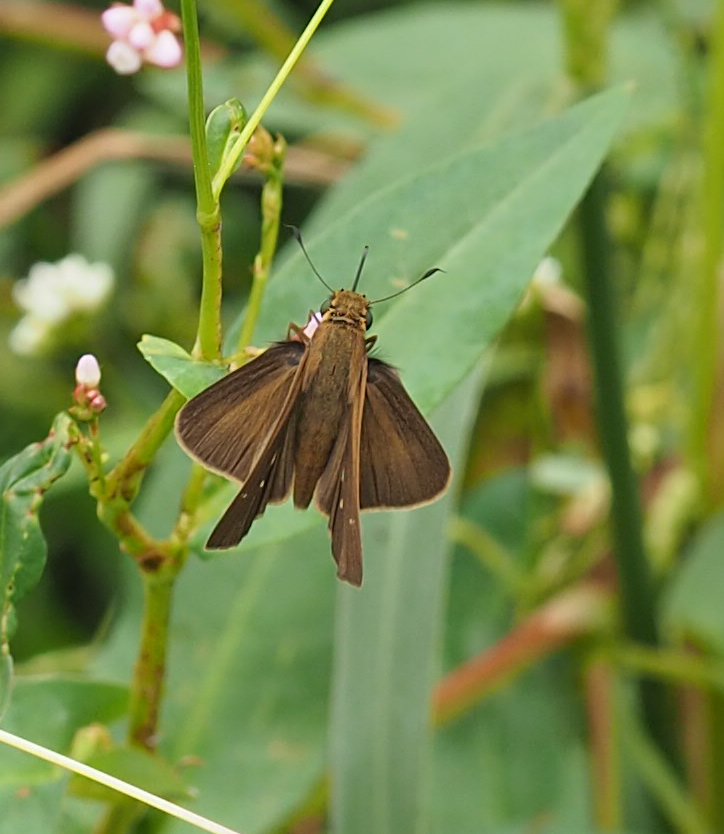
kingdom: Animalia
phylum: Arthropoda
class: Insecta
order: Lepidoptera
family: Hesperiidae
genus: Panoquina
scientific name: Panoquina ocola
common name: Ocola skipper
